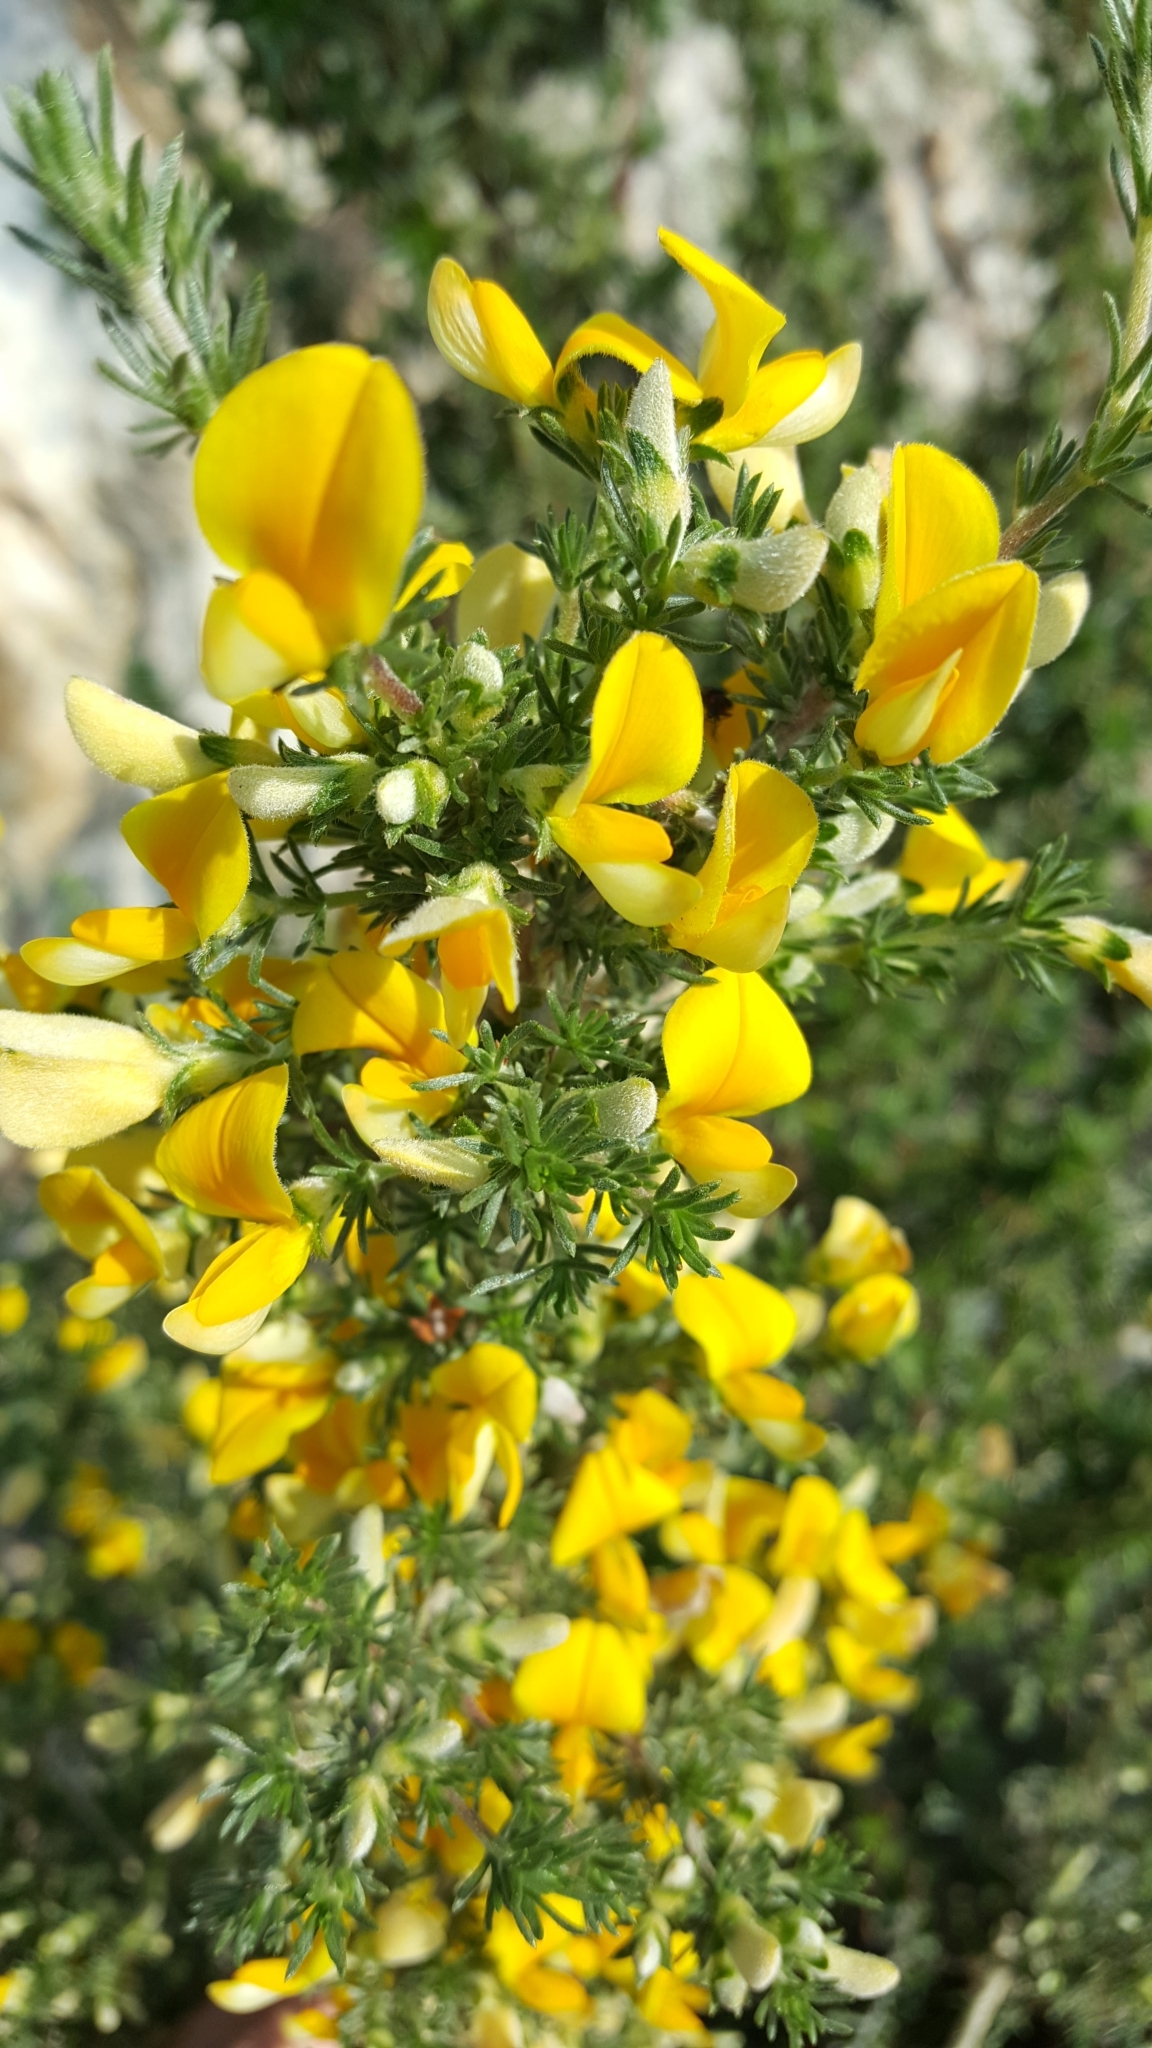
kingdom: Plantae
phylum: Tracheophyta
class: Magnoliopsida
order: Fabales
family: Fabaceae
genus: Aspalathus
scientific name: Aspalathus spicata
